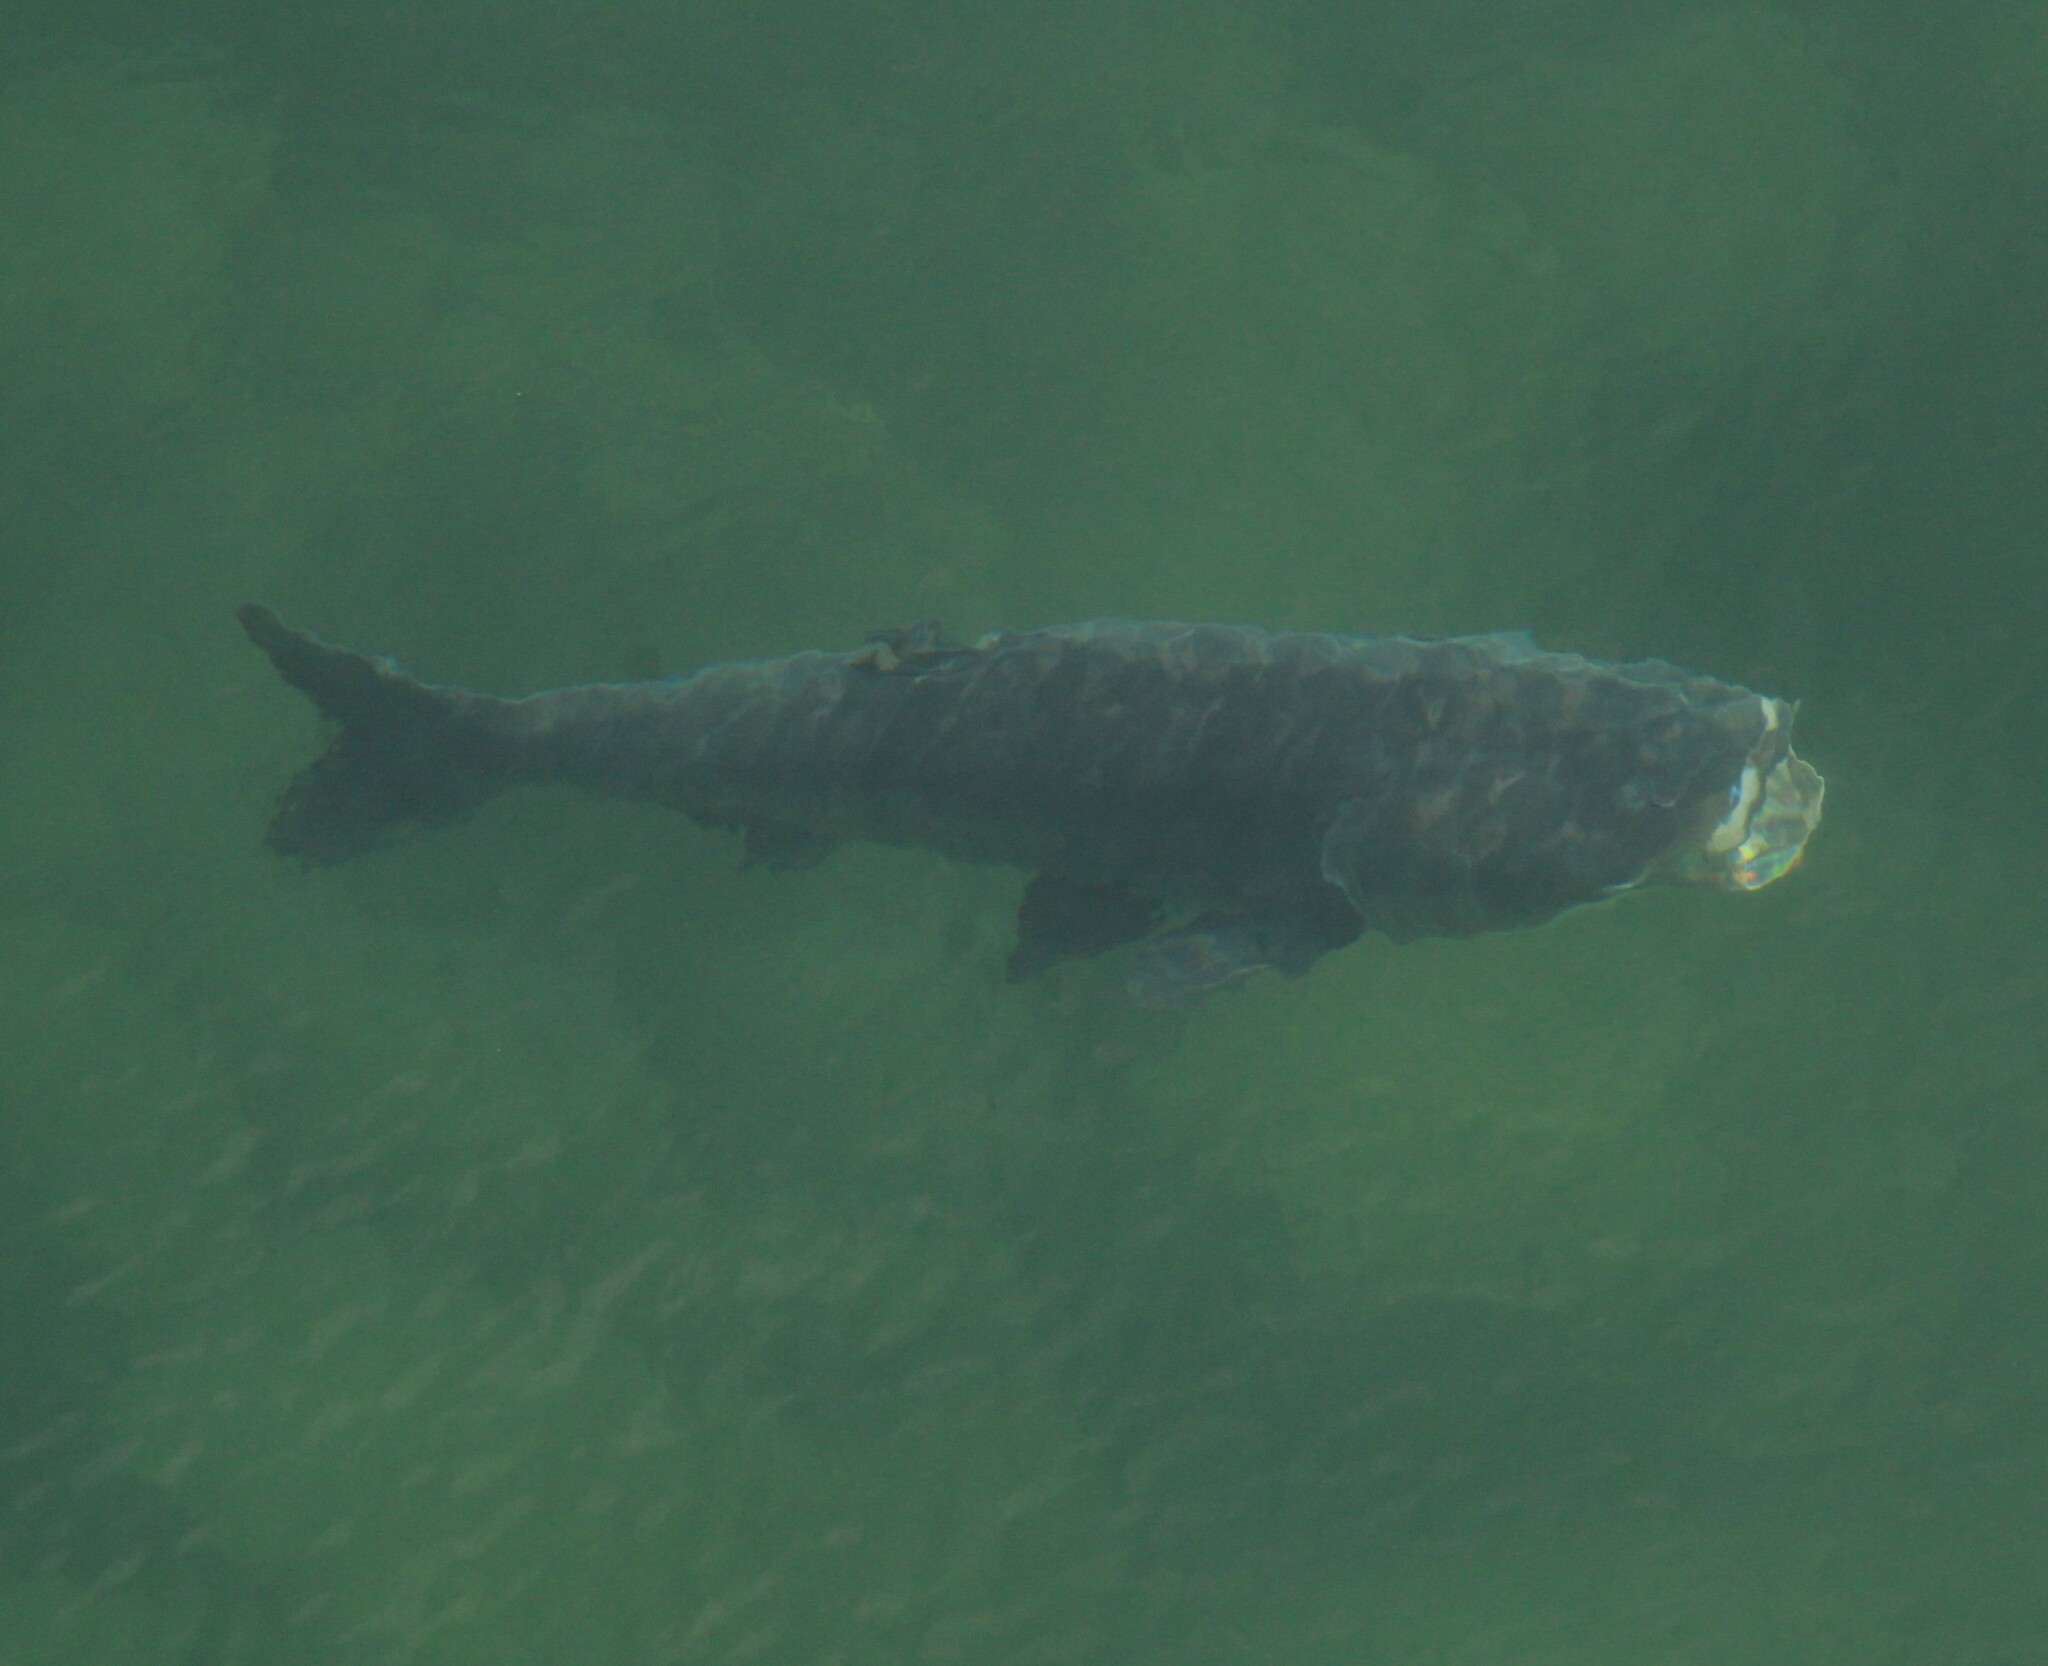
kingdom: Animalia
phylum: Chordata
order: Cypriniformes
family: Cyprinidae
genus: Hypophthalmichthys
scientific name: Hypophthalmichthys nobilis
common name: Bighead carp
